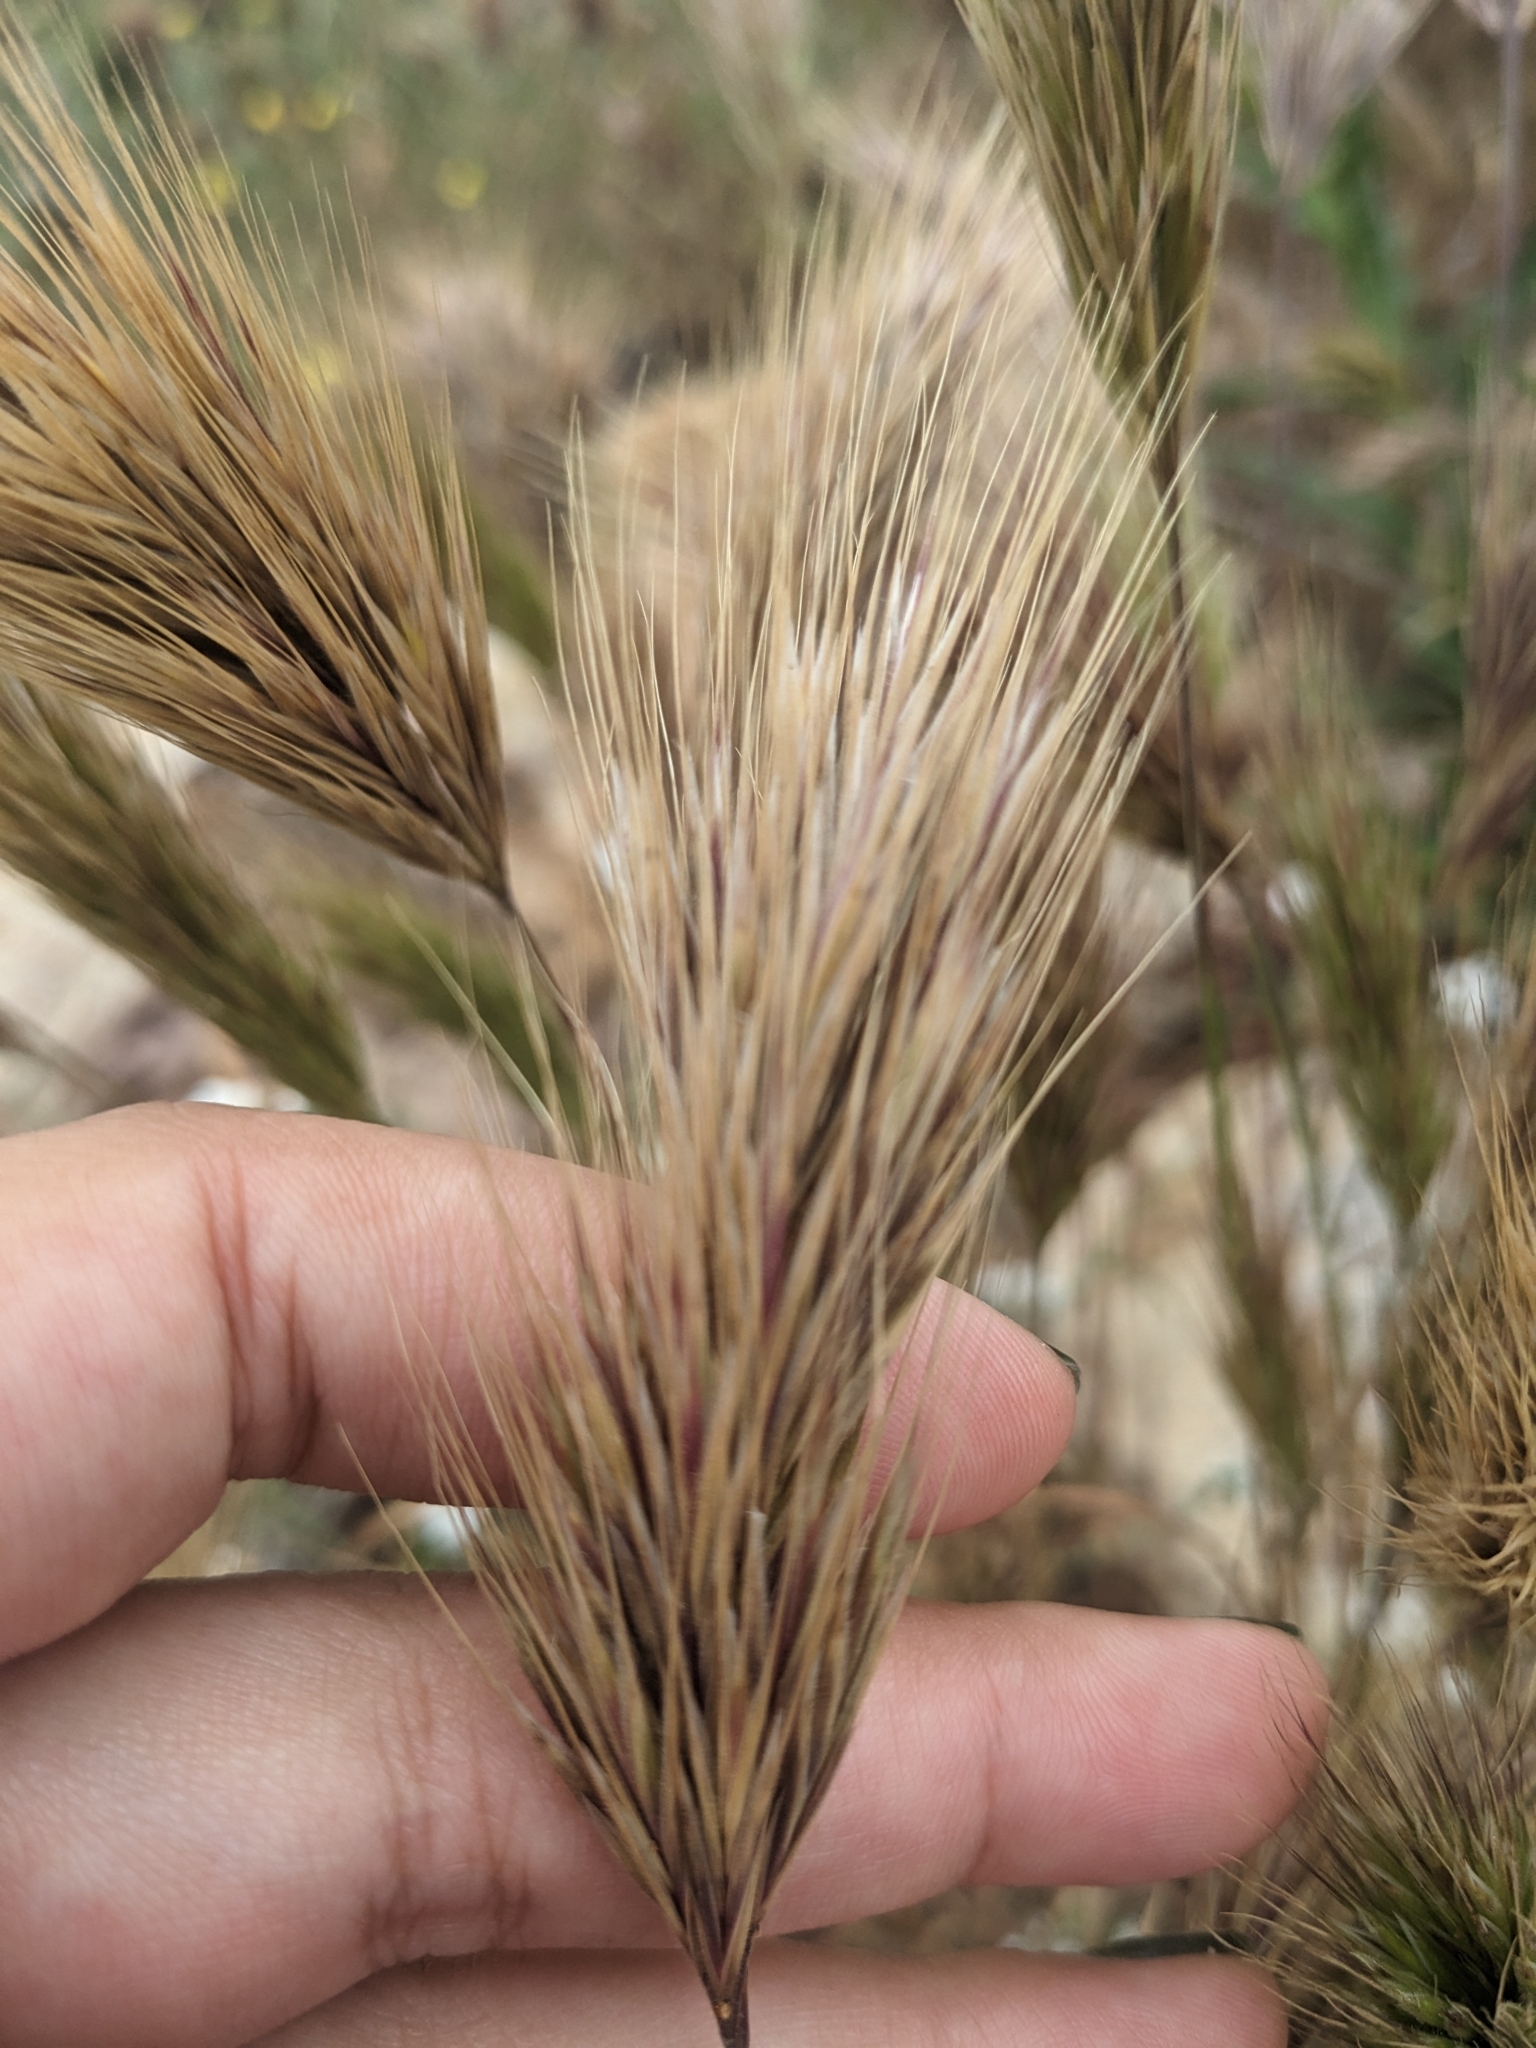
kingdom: Plantae
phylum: Tracheophyta
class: Liliopsida
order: Poales
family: Poaceae
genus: Bromus
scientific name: Bromus rubens
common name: Red brome
